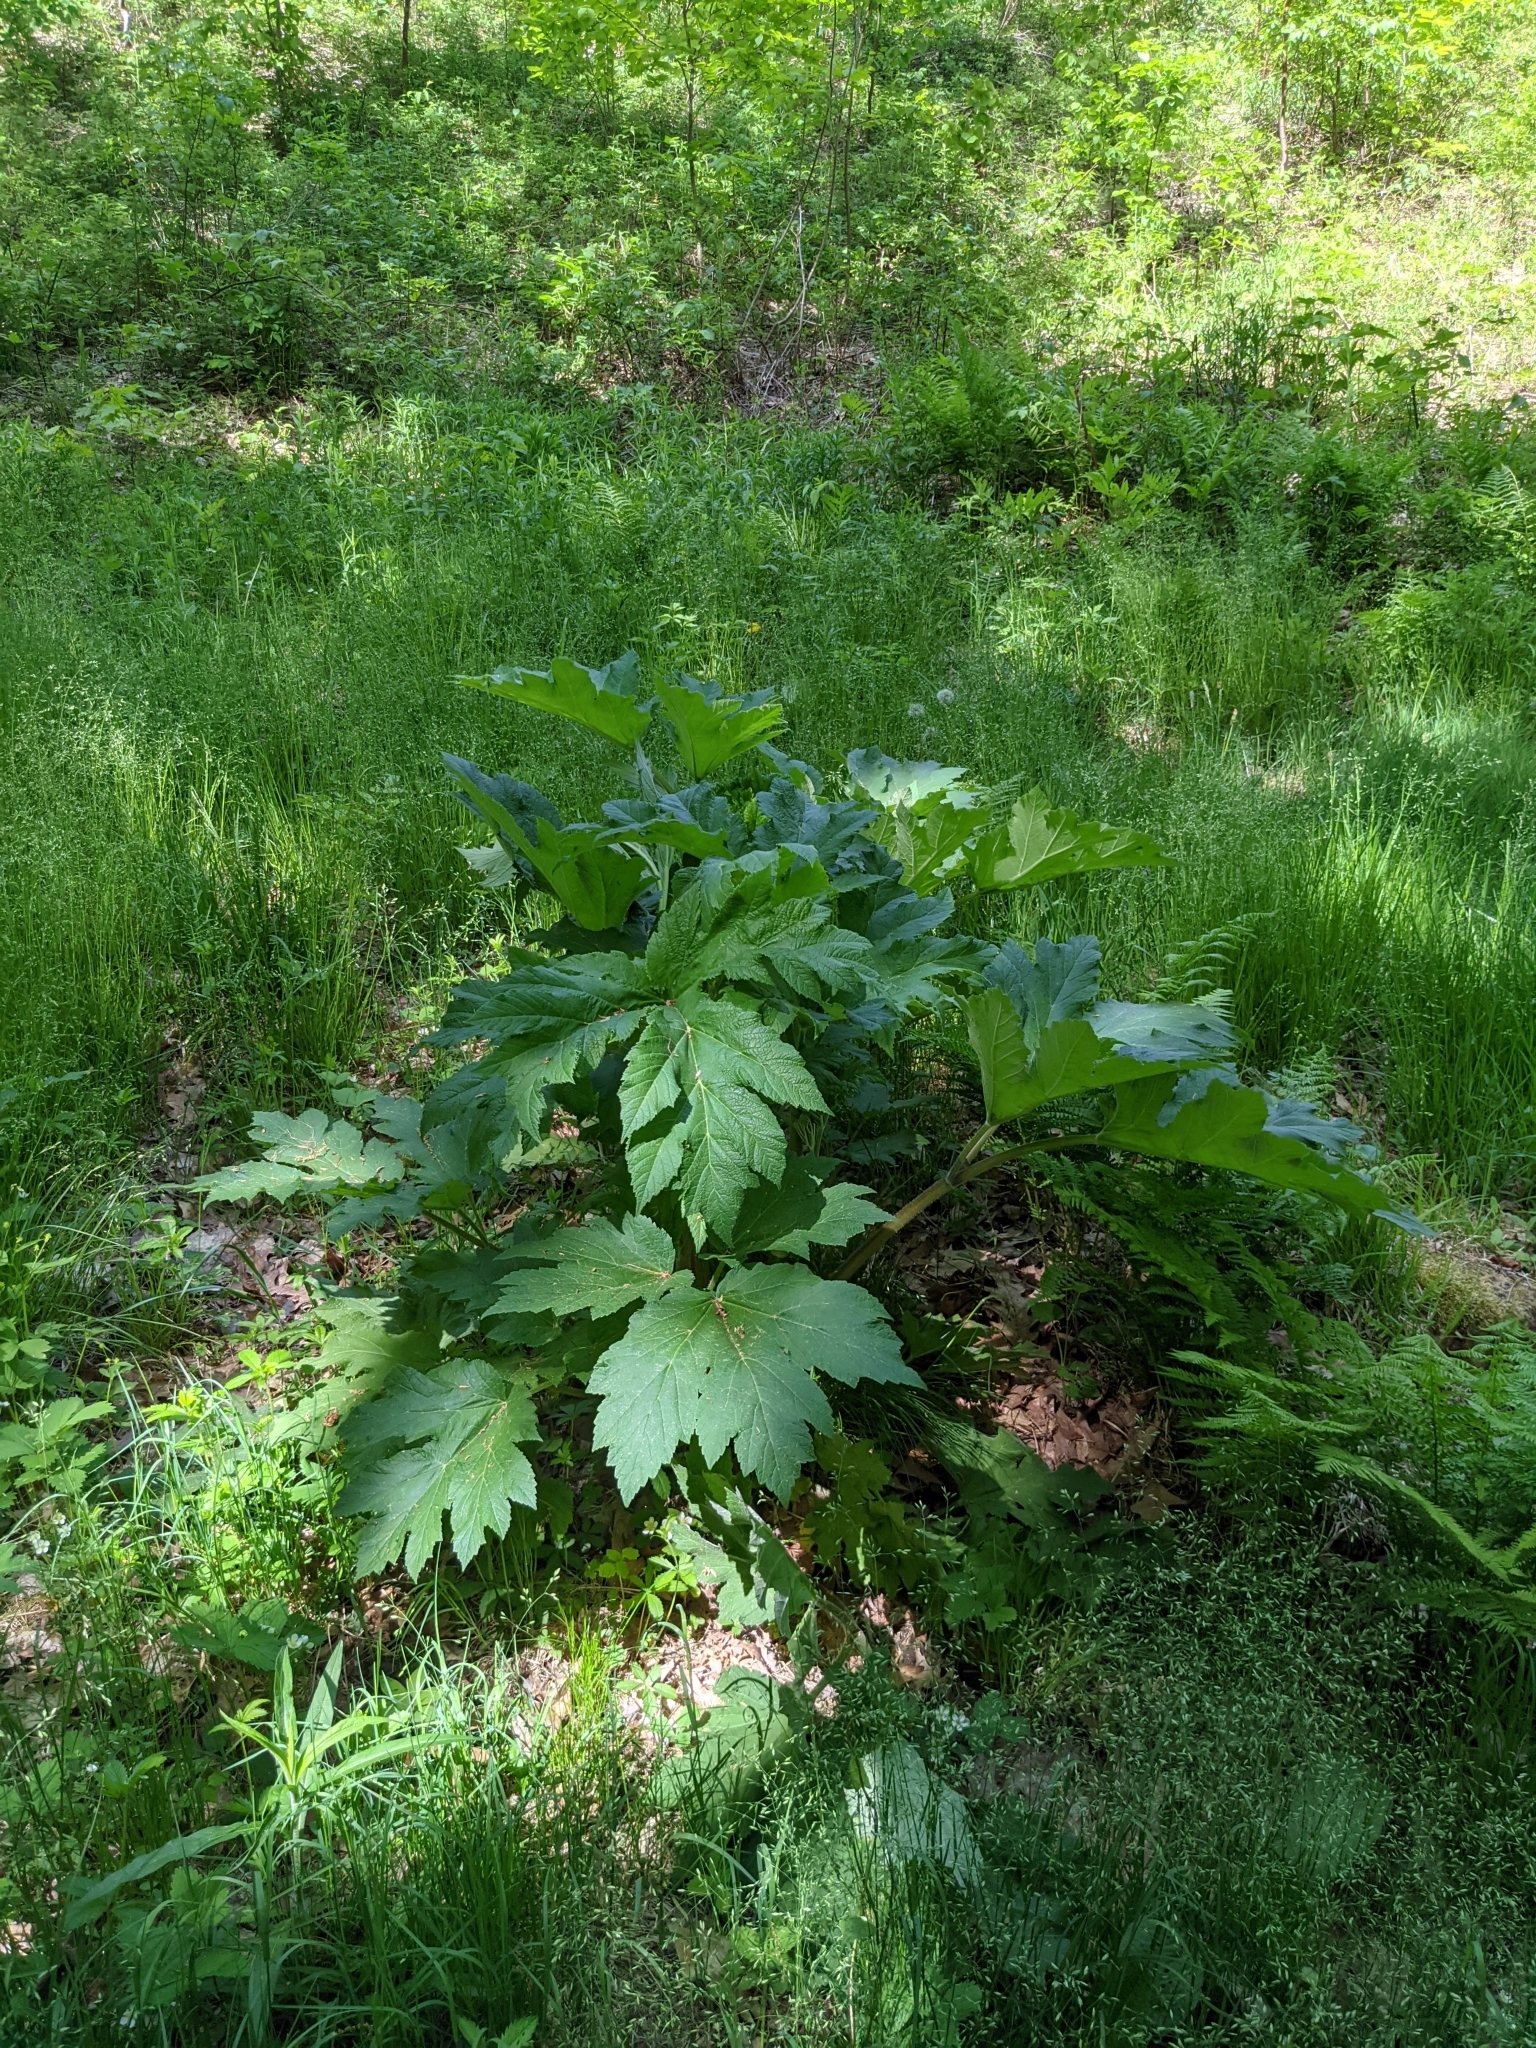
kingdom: Plantae
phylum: Tracheophyta
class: Magnoliopsida
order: Apiales
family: Apiaceae
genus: Heracleum
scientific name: Heracleum maximum
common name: American cow parsnip
